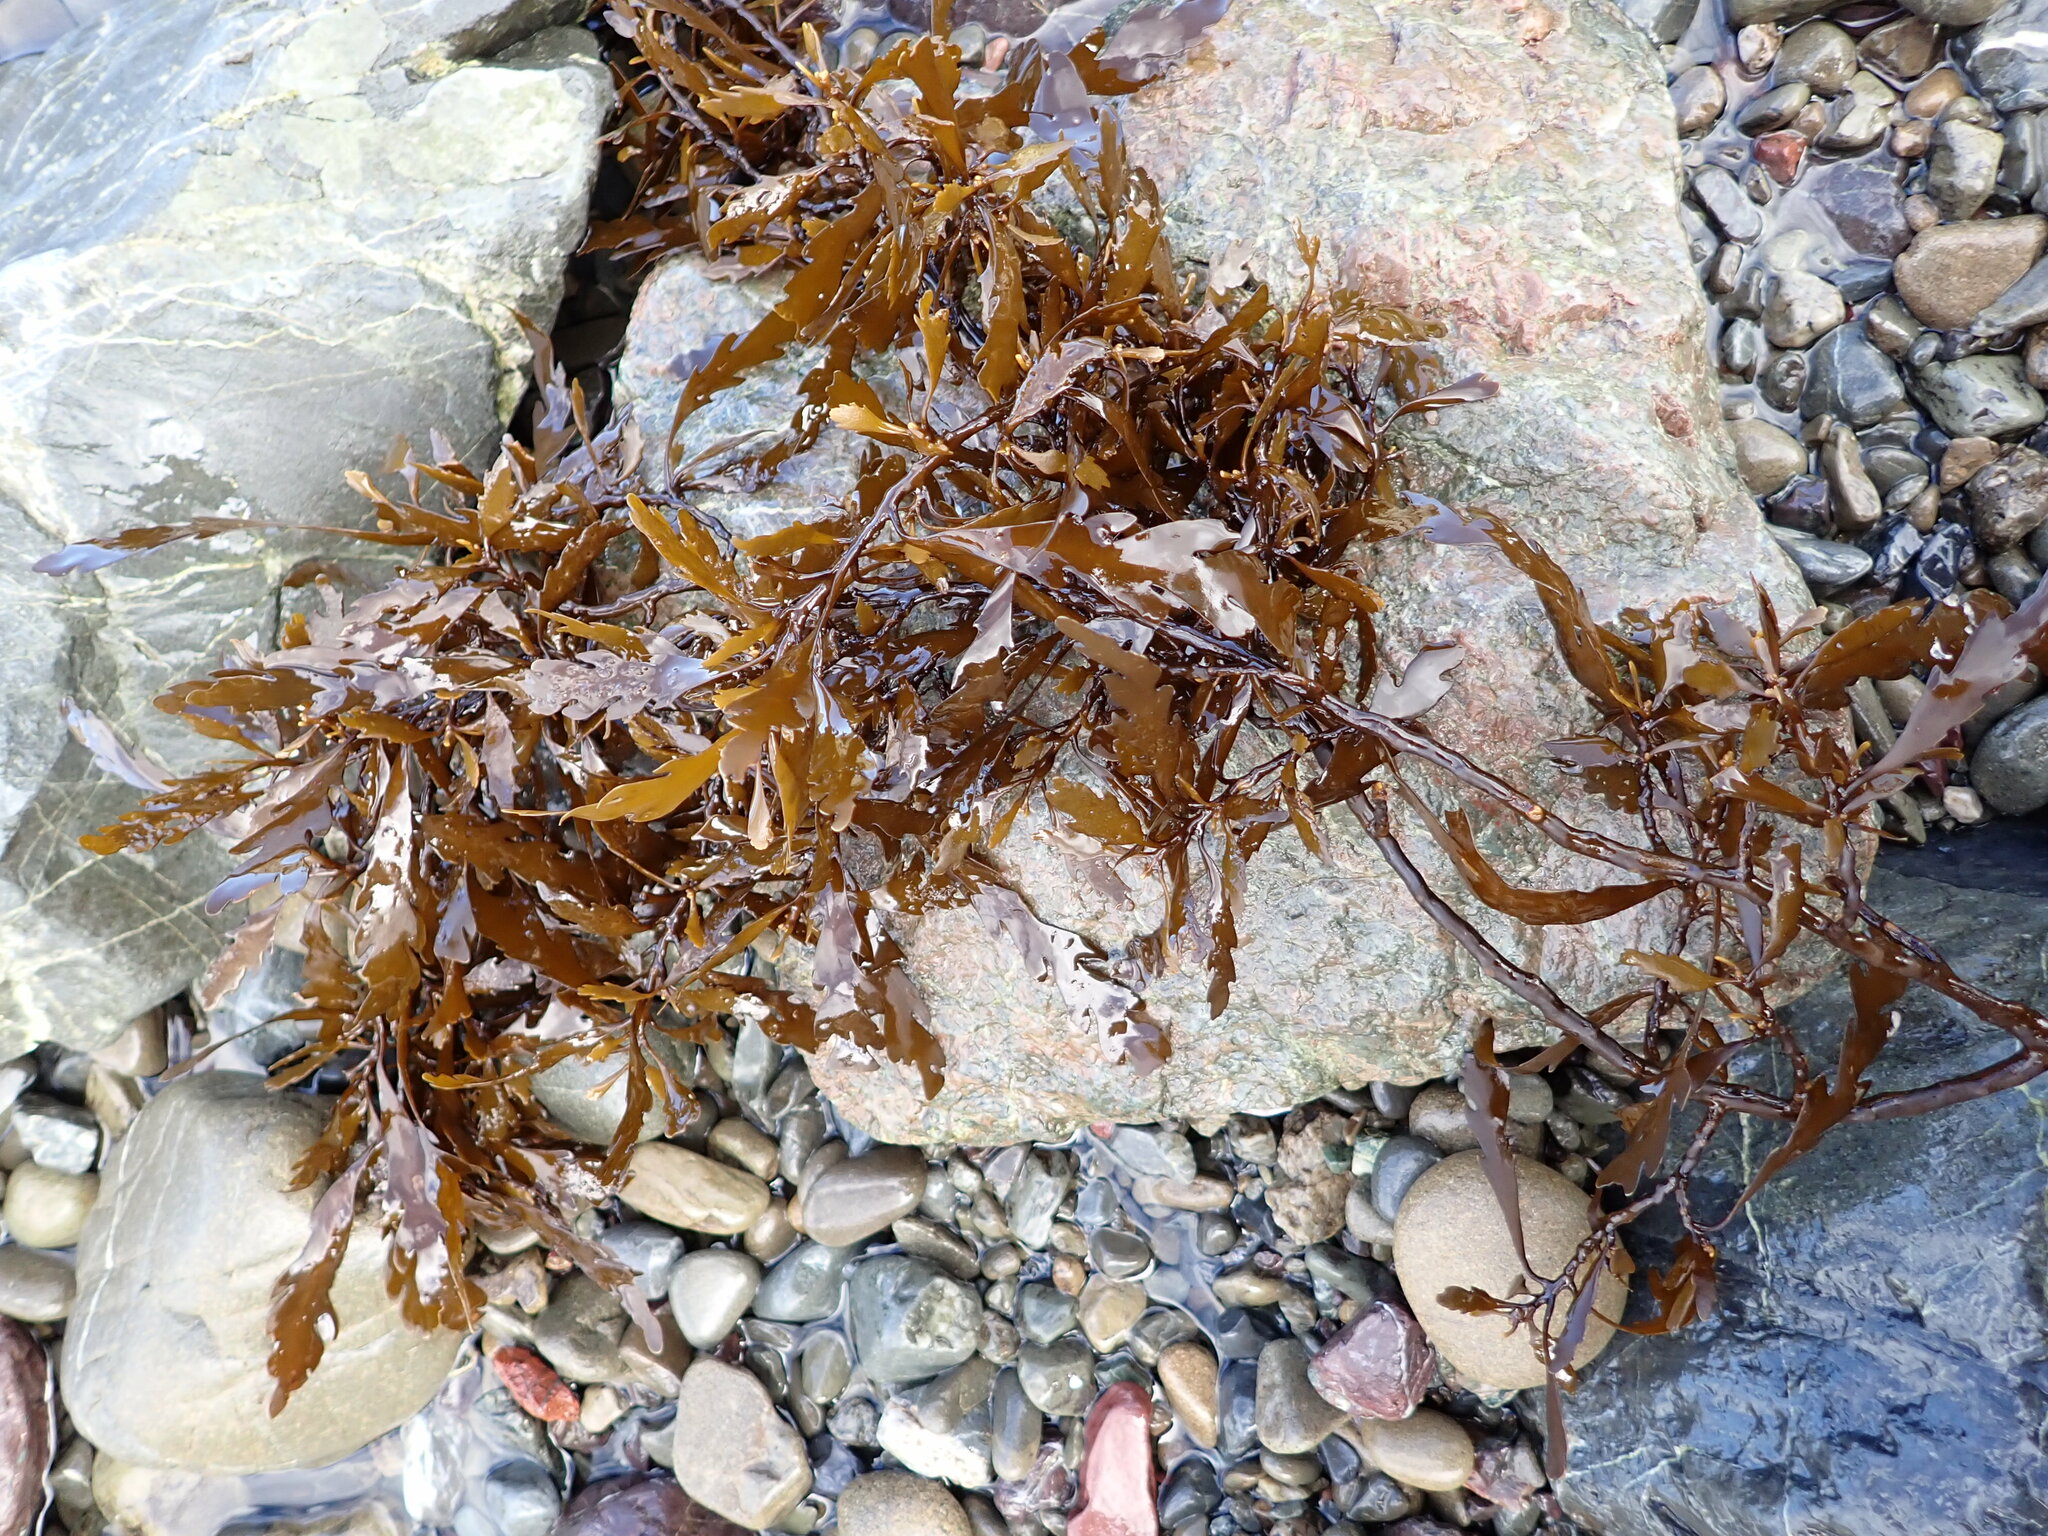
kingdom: Chromista
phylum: Ochrophyta
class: Phaeophyceae
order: Fucales
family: Sargassaceae
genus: Landsburgia
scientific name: Landsburgia quercifolia
